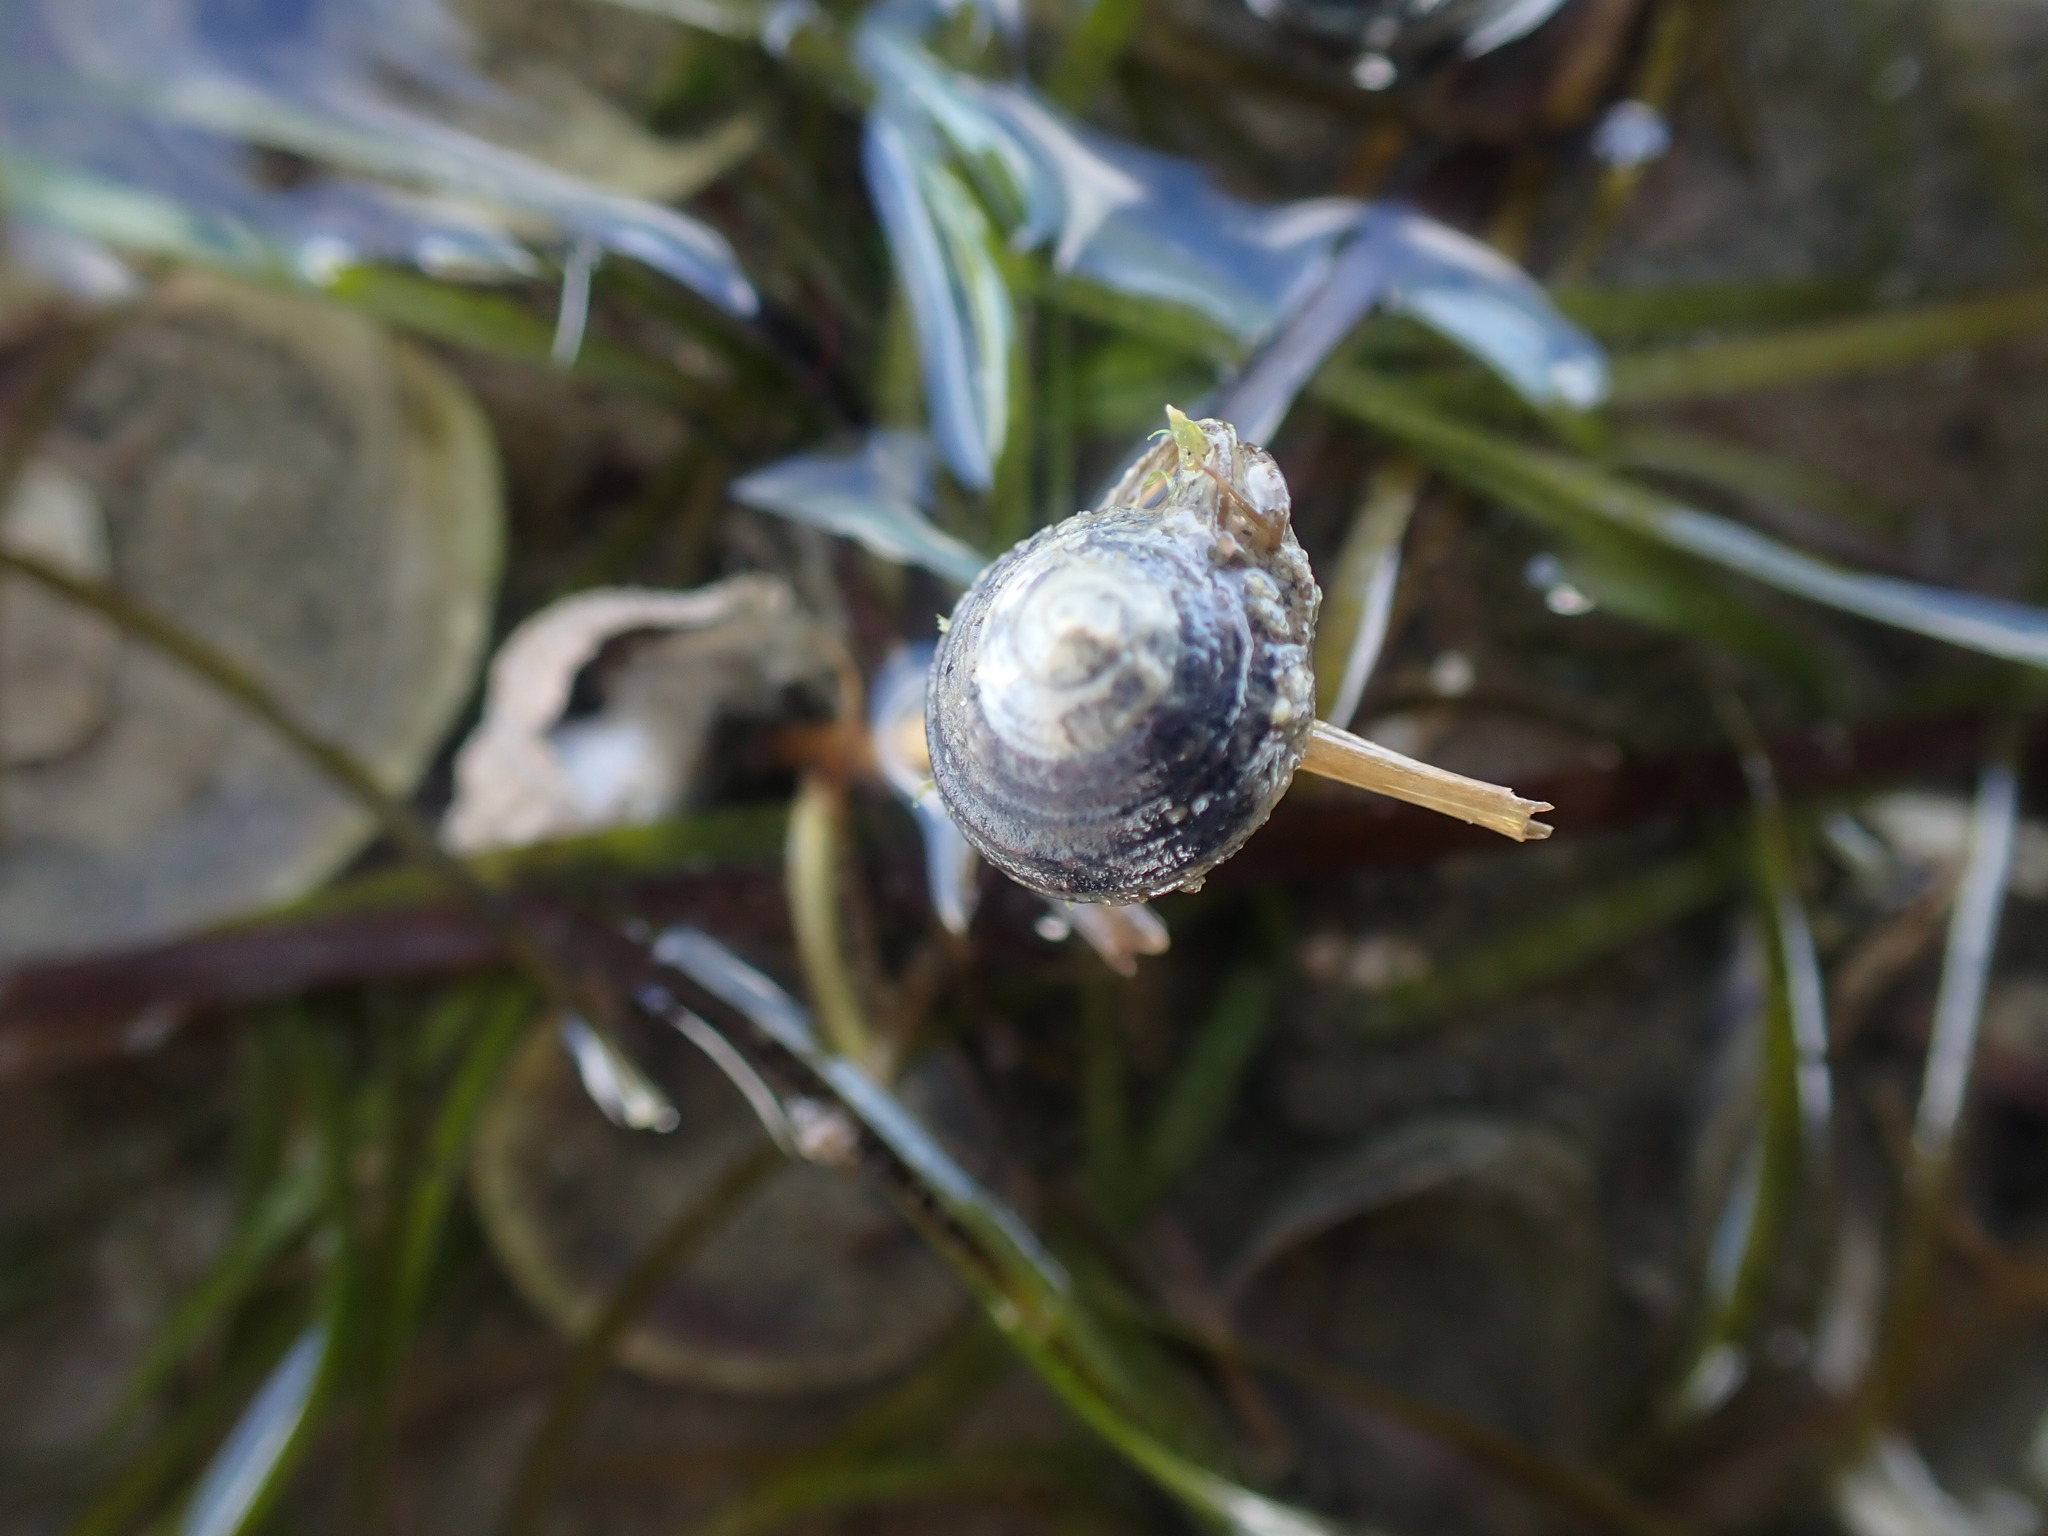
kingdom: Animalia
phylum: Mollusca
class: Gastropoda
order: Trochida
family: Trochidae
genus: Diloma
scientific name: Diloma subrostratum
